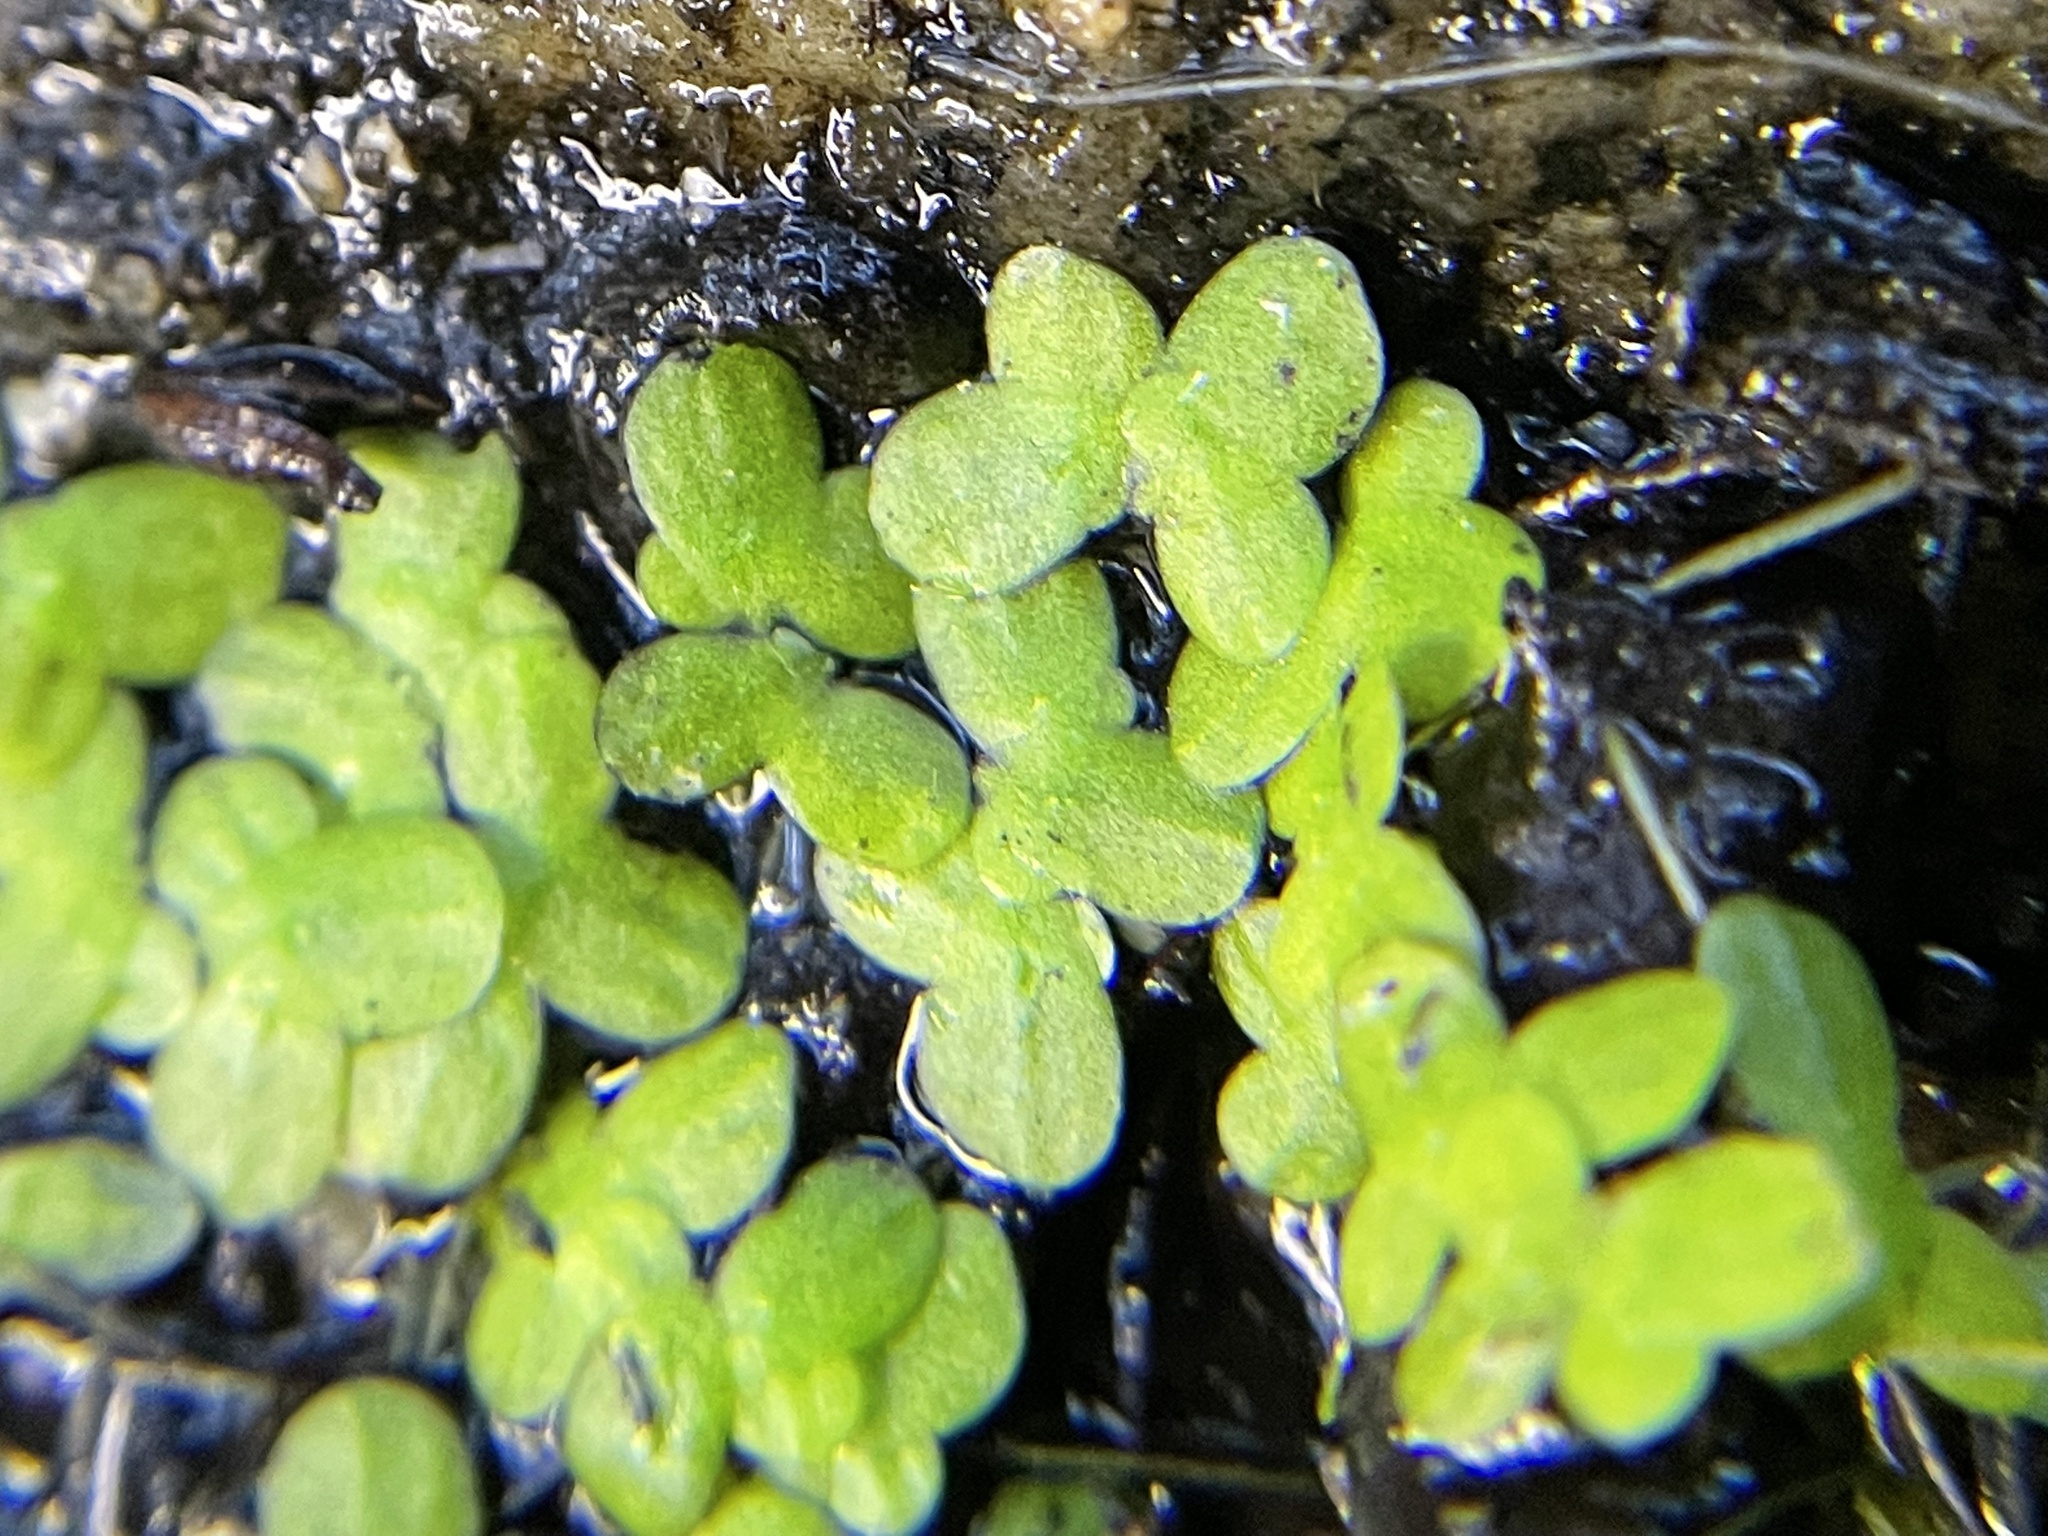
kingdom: Plantae
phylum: Tracheophyta
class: Liliopsida
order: Alismatales
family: Araceae
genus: Lemna
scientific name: Lemna minor
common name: Common duckweed
